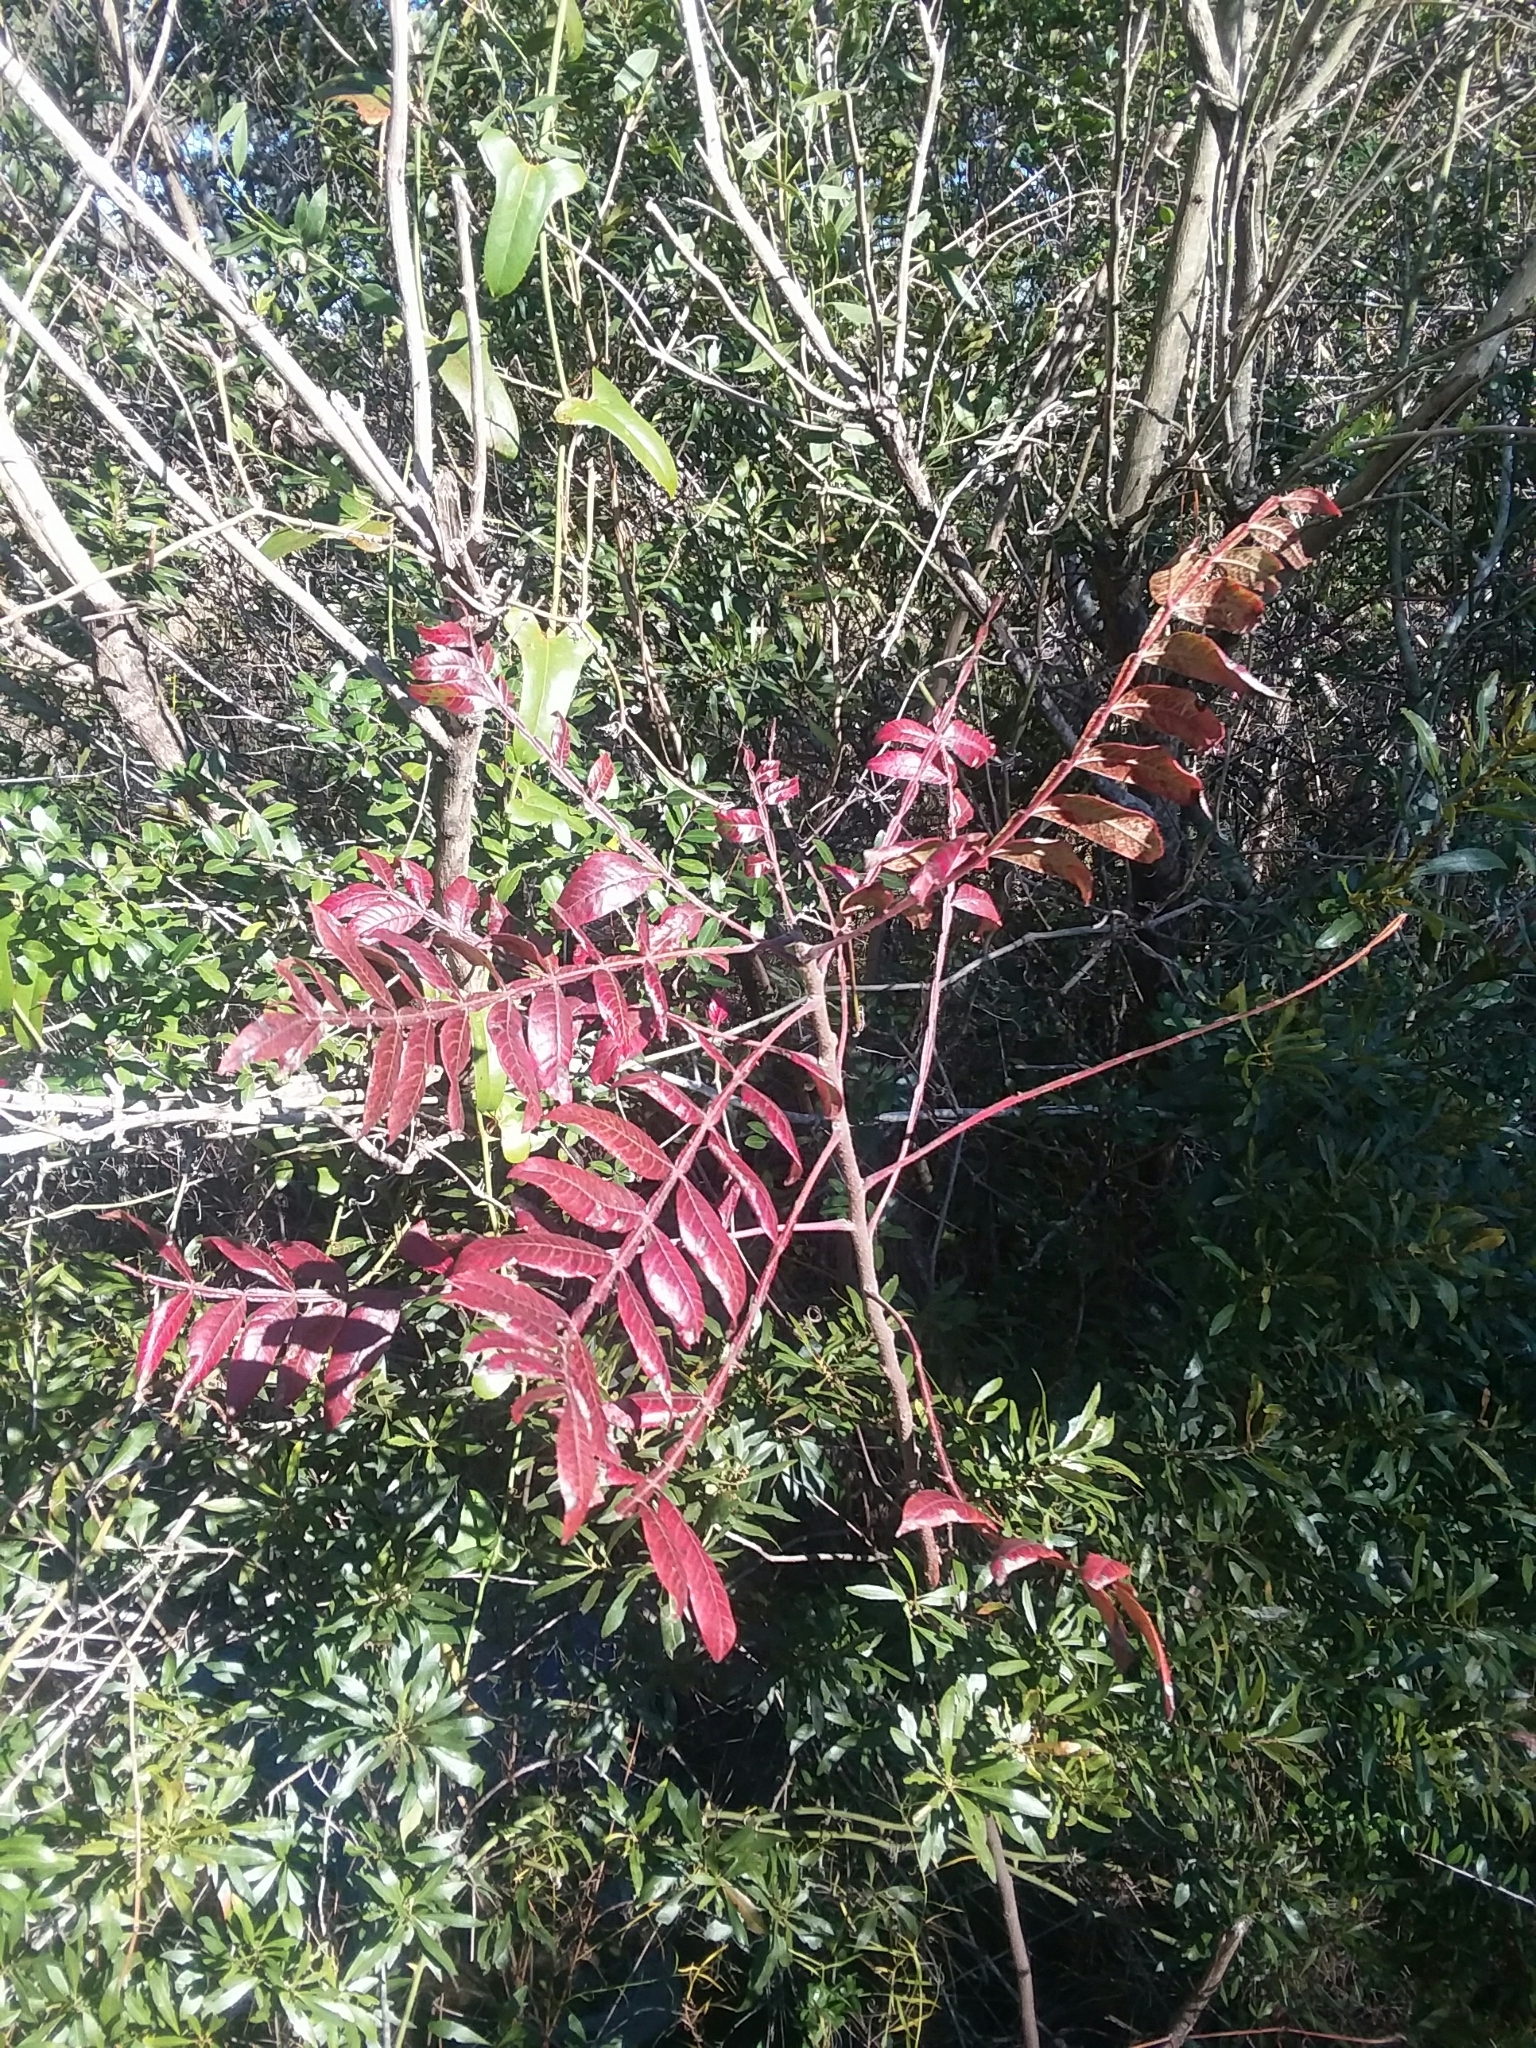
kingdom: Plantae
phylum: Tracheophyta
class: Magnoliopsida
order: Sapindales
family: Anacardiaceae
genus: Rhus
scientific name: Rhus copallina
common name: Shining sumac
